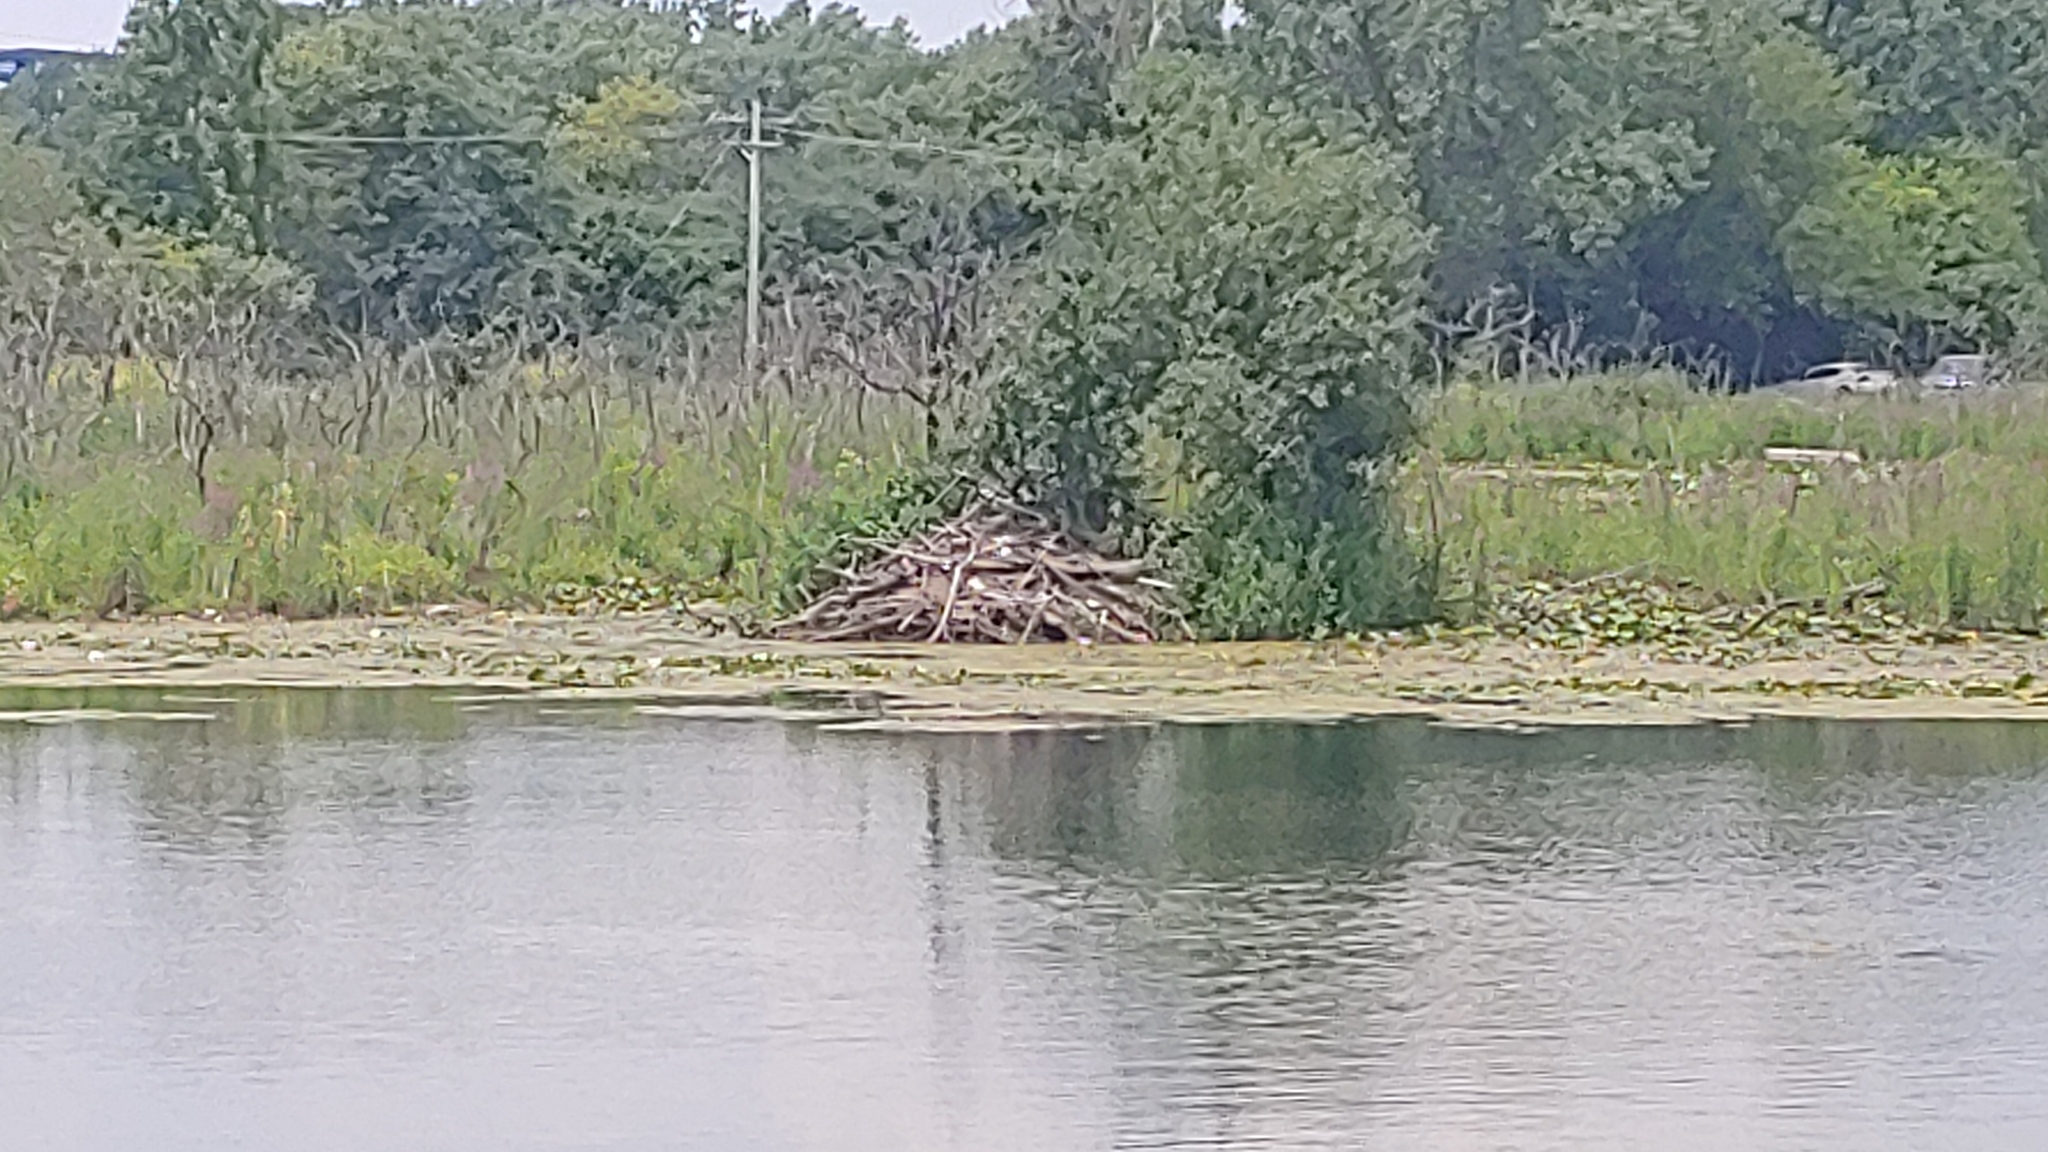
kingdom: Animalia
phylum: Chordata
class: Mammalia
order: Rodentia
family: Castoridae
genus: Castor
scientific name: Castor canadensis
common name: American beaver
